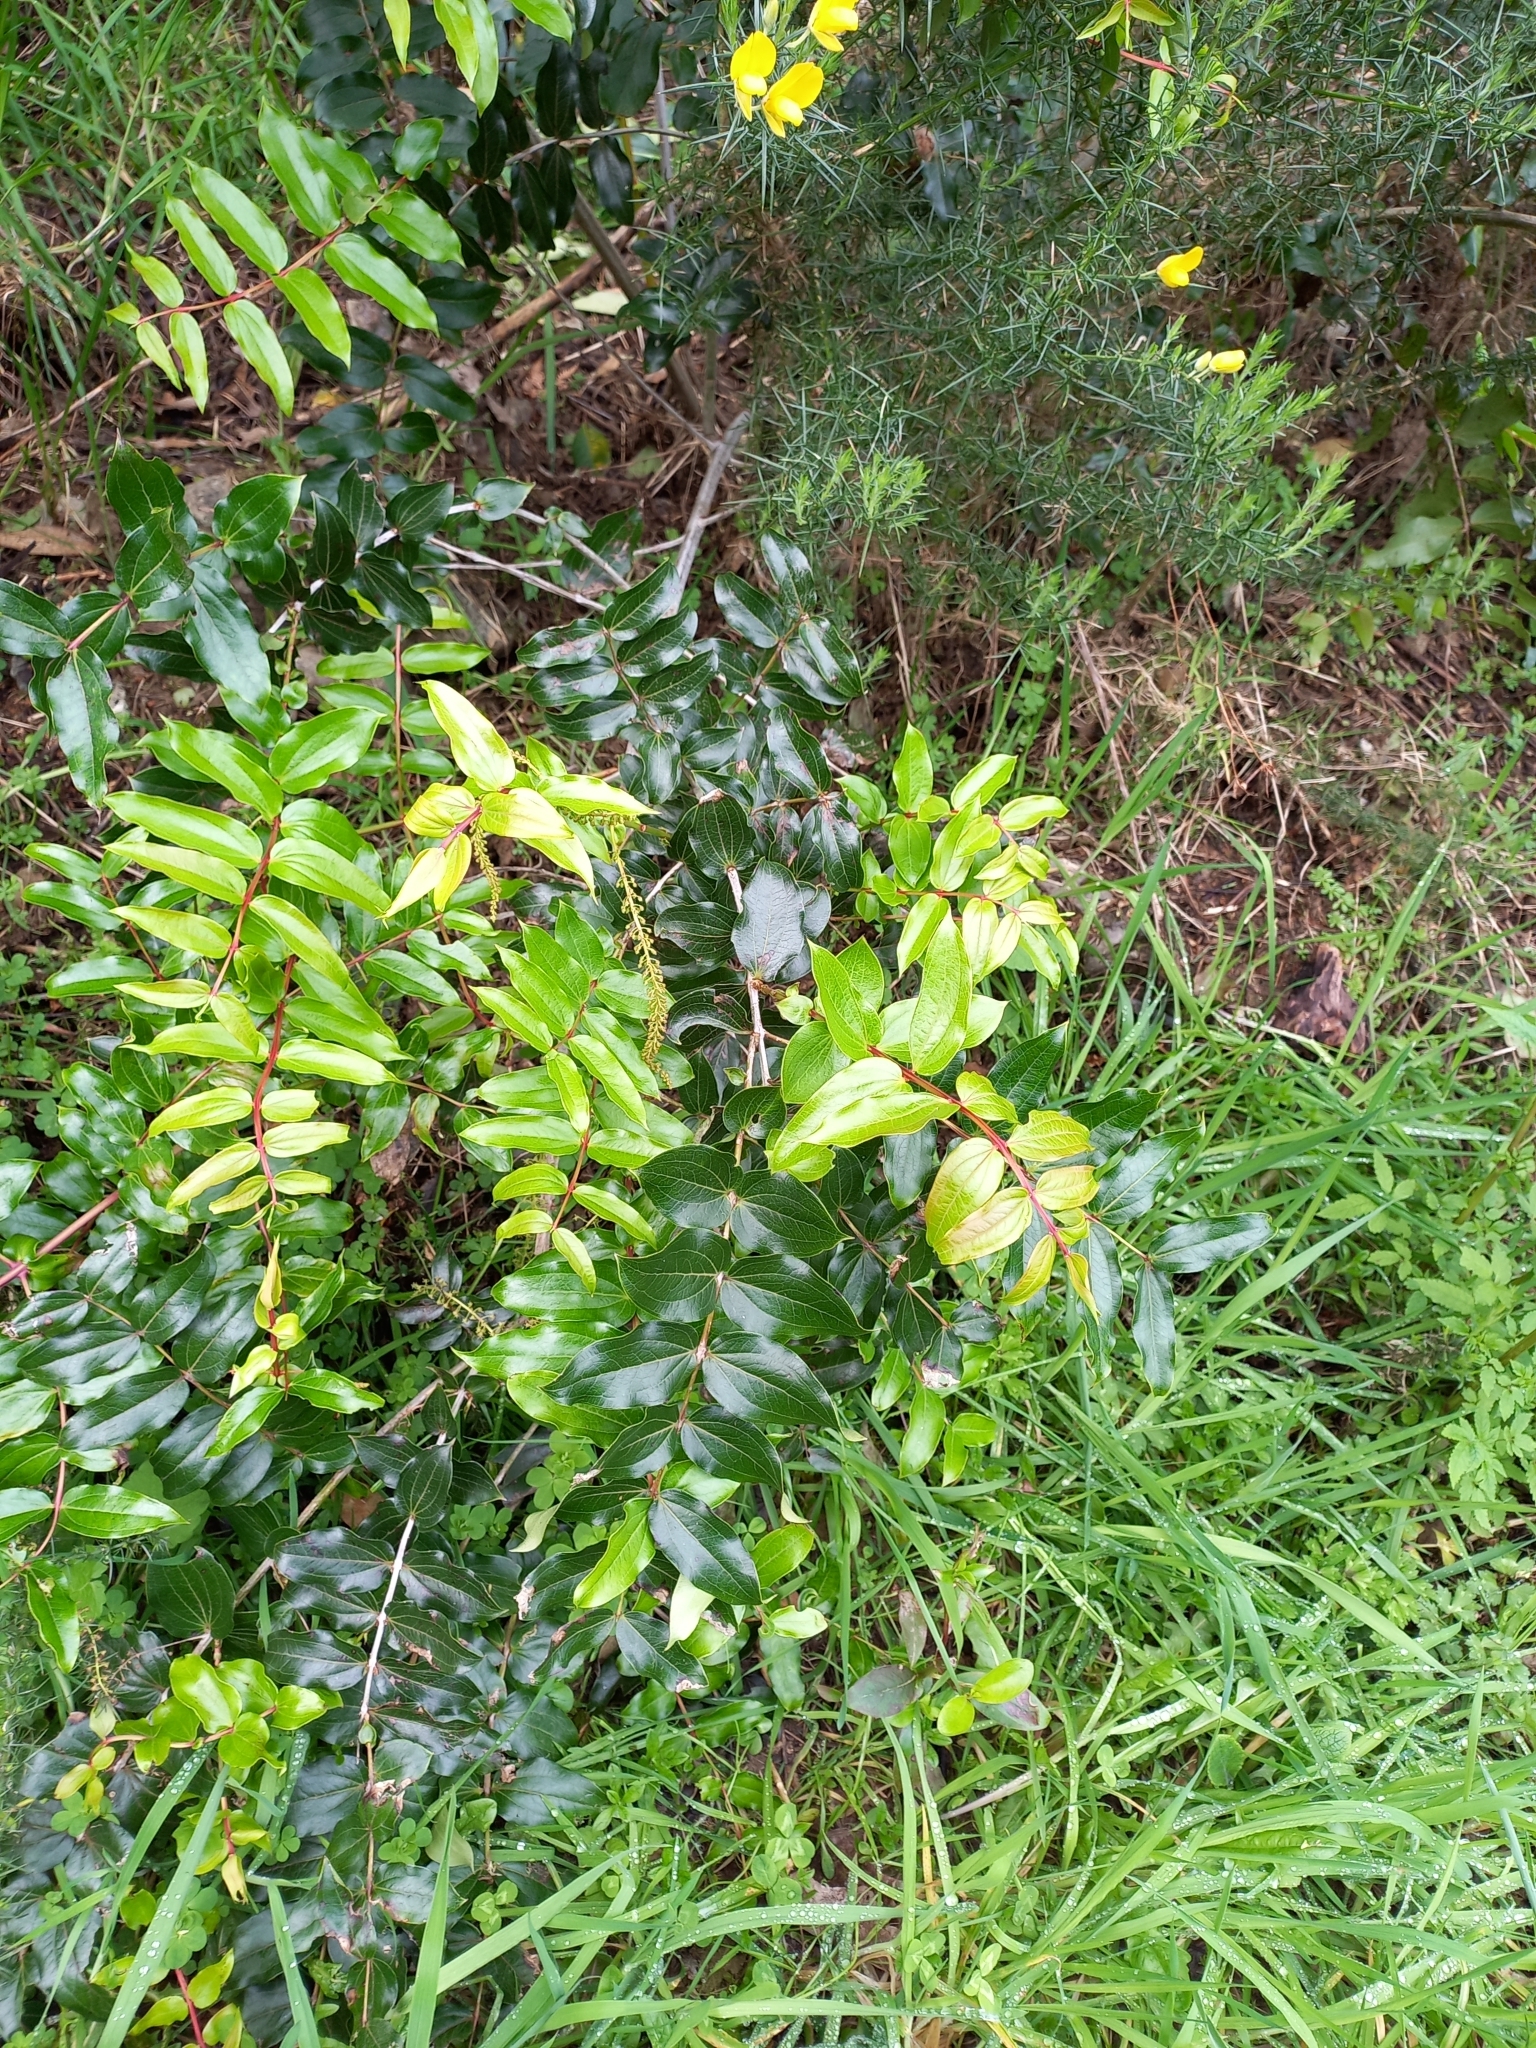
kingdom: Plantae
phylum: Tracheophyta
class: Magnoliopsida
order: Cucurbitales
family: Coriariaceae
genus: Coriaria
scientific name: Coriaria arborea
